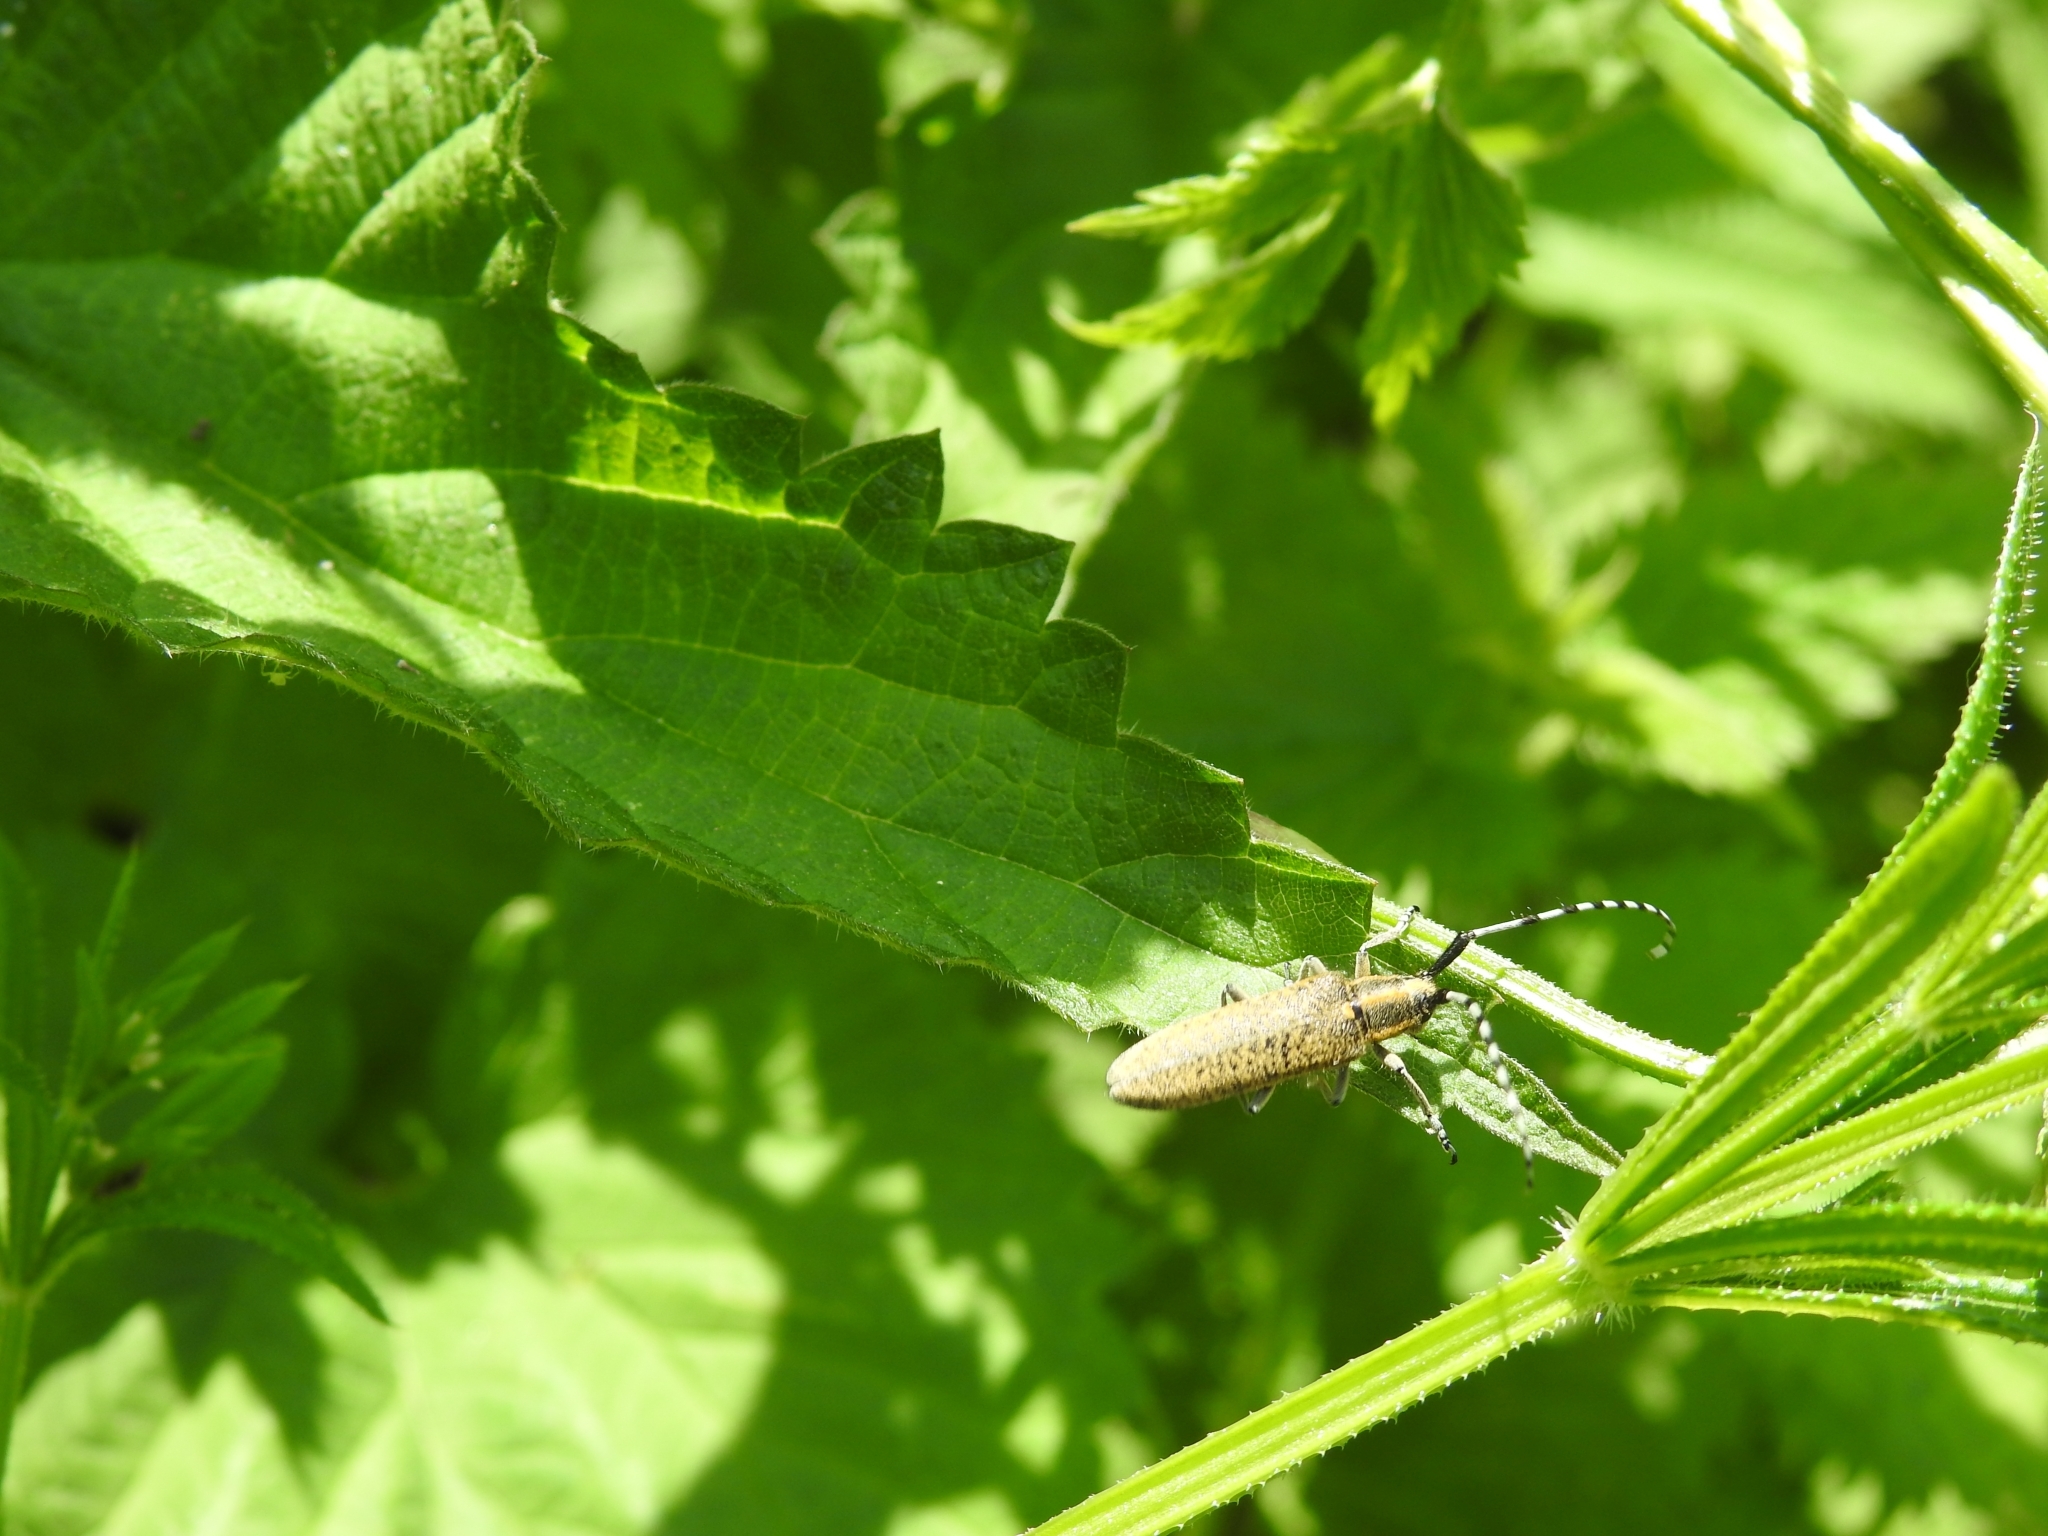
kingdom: Animalia
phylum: Arthropoda
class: Insecta
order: Coleoptera
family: Cerambycidae
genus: Agapanthia
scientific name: Agapanthia villosoviridescens
